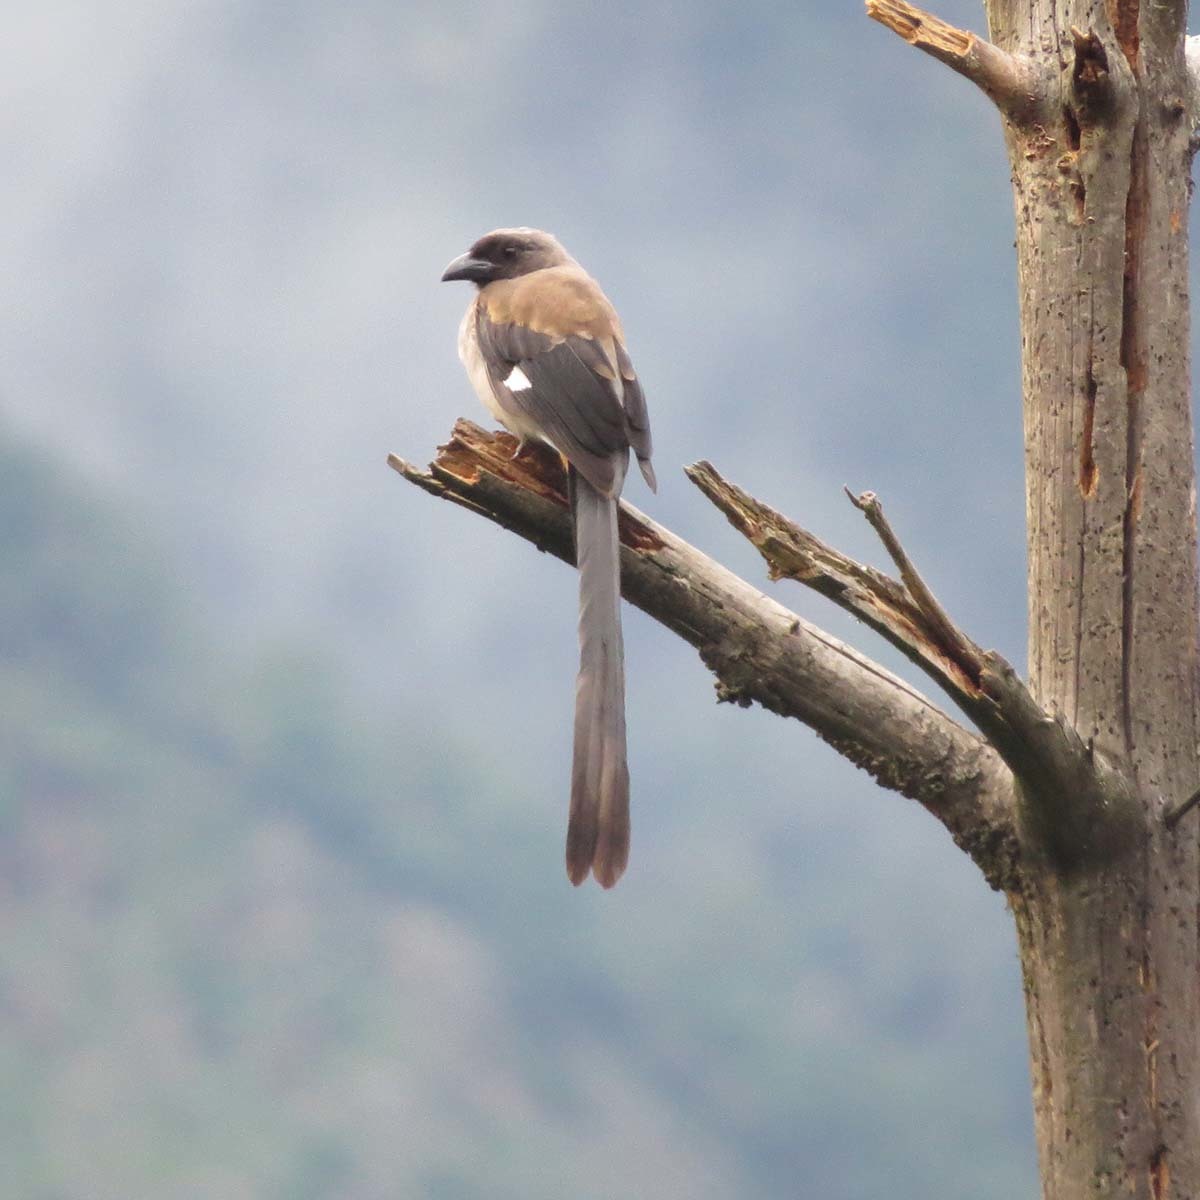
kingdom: Animalia
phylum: Chordata
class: Aves
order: Passeriformes
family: Corvidae
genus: Dendrocitta
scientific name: Dendrocitta formosae
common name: Grey treepie
